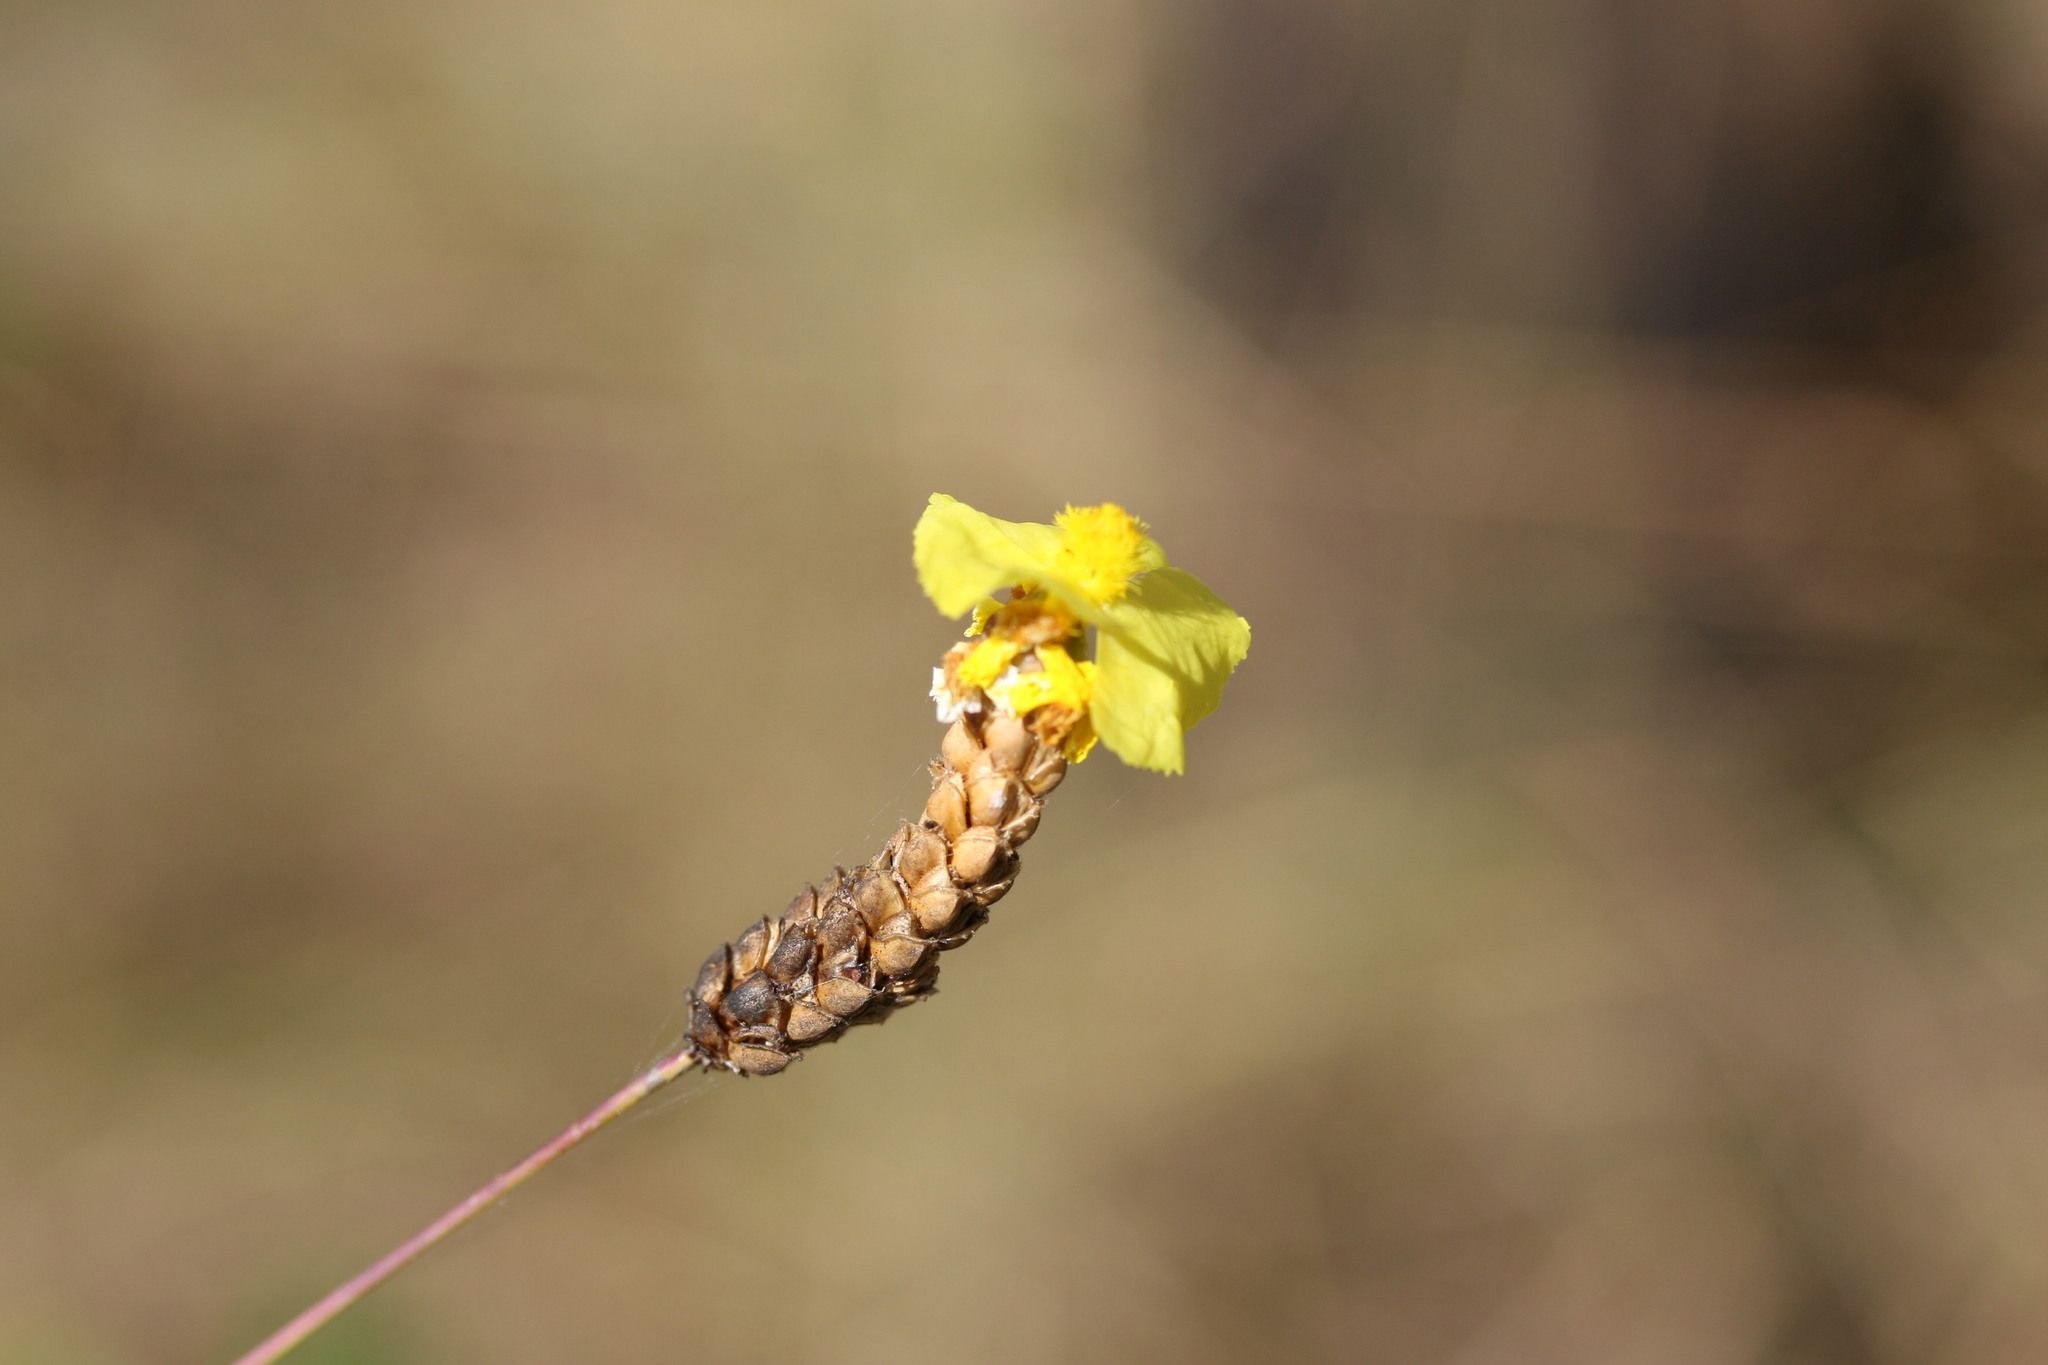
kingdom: Plantae
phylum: Tracheophyta
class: Liliopsida
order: Poales
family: Xyridaceae
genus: Xyris
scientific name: Xyris complanata
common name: Hawai'i yelloweyed grass
